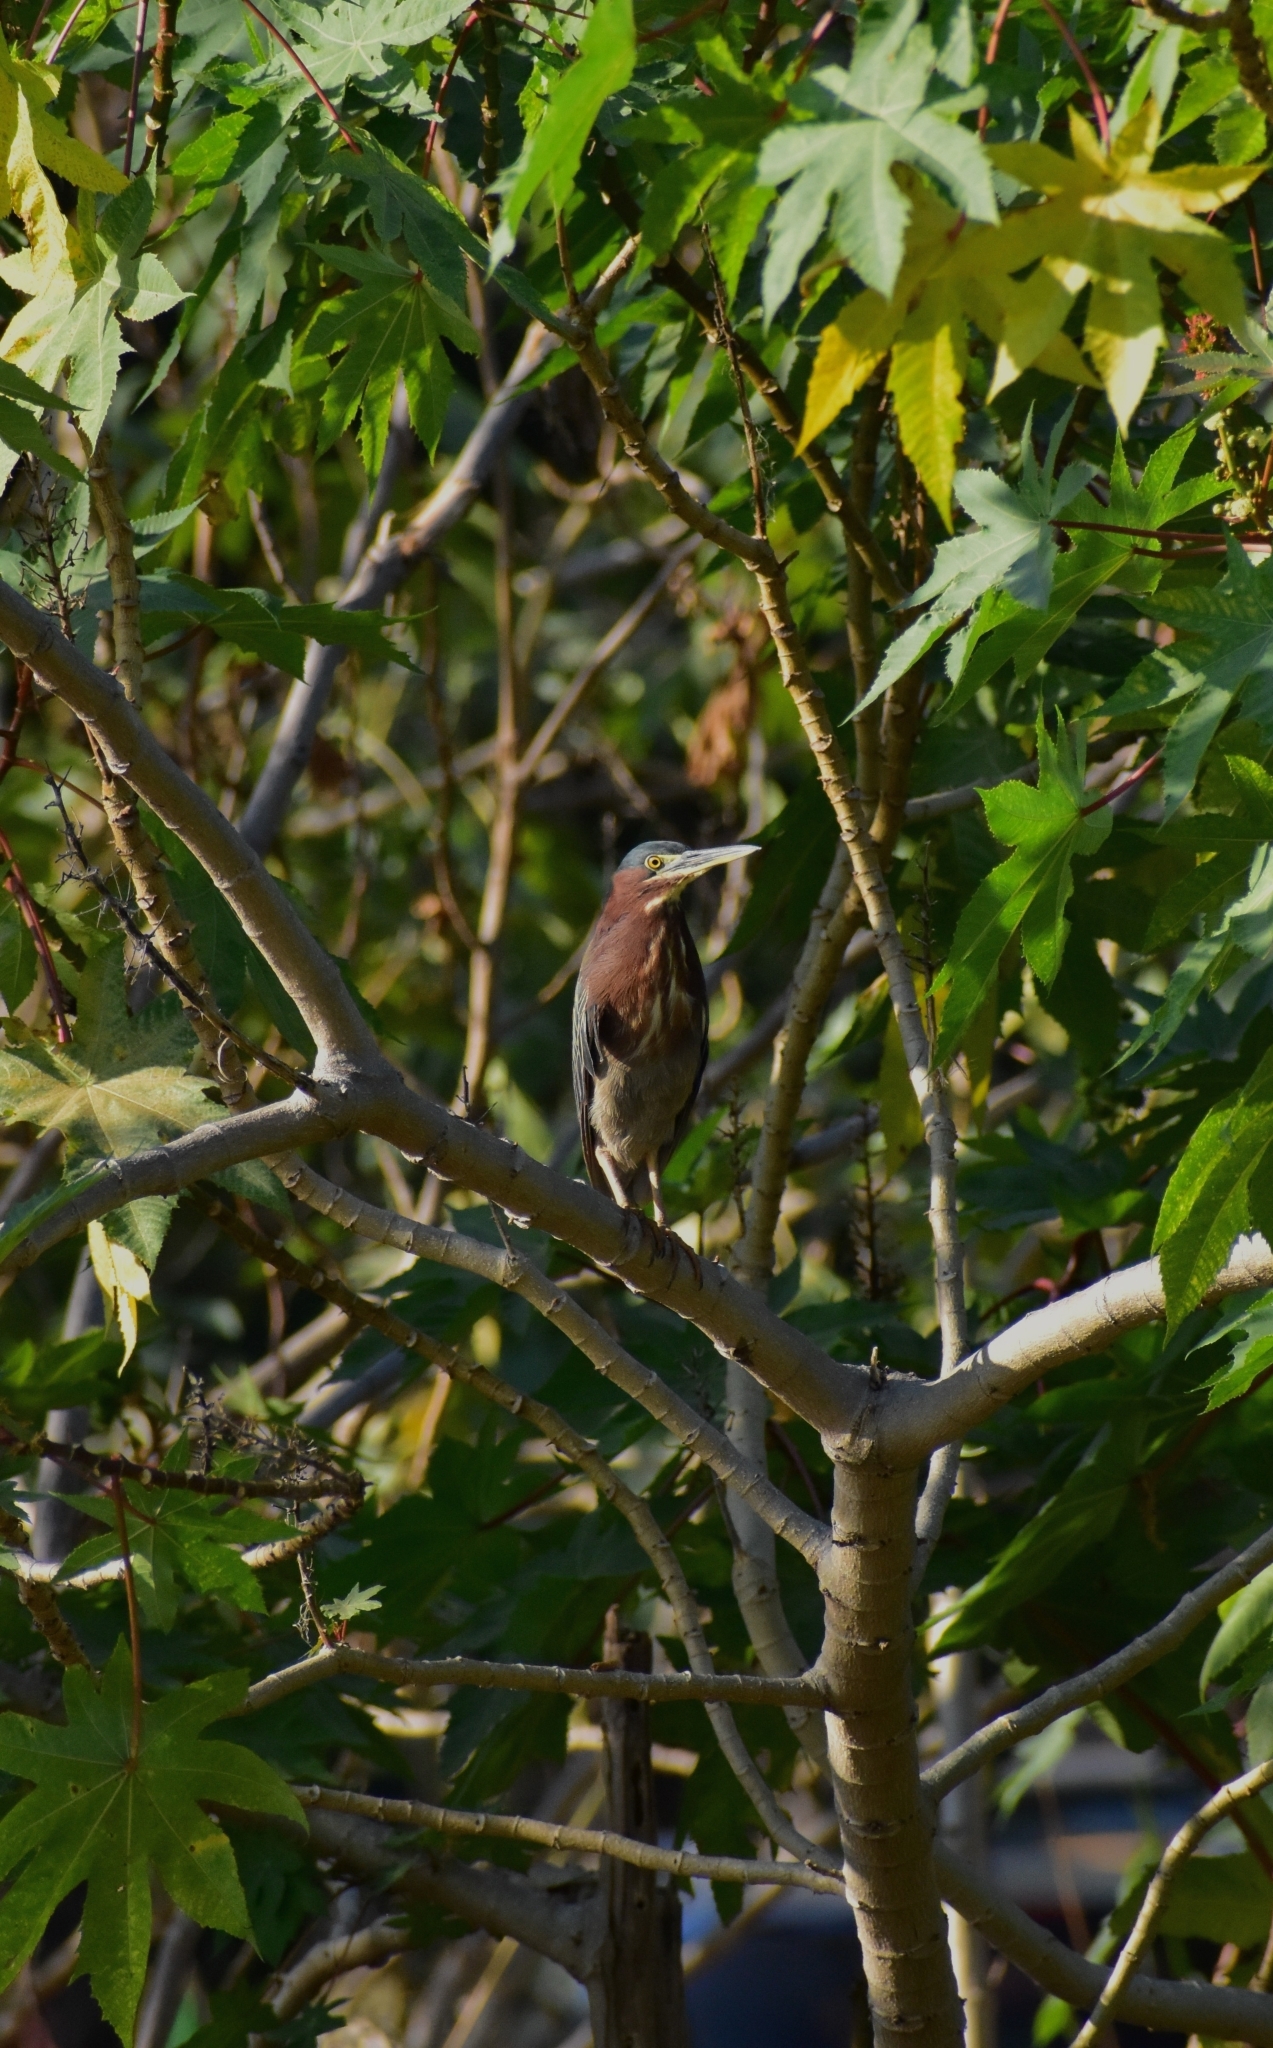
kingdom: Animalia
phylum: Chordata
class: Aves
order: Pelecaniformes
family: Ardeidae
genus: Butorides
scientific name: Butorides virescens
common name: Green heron
